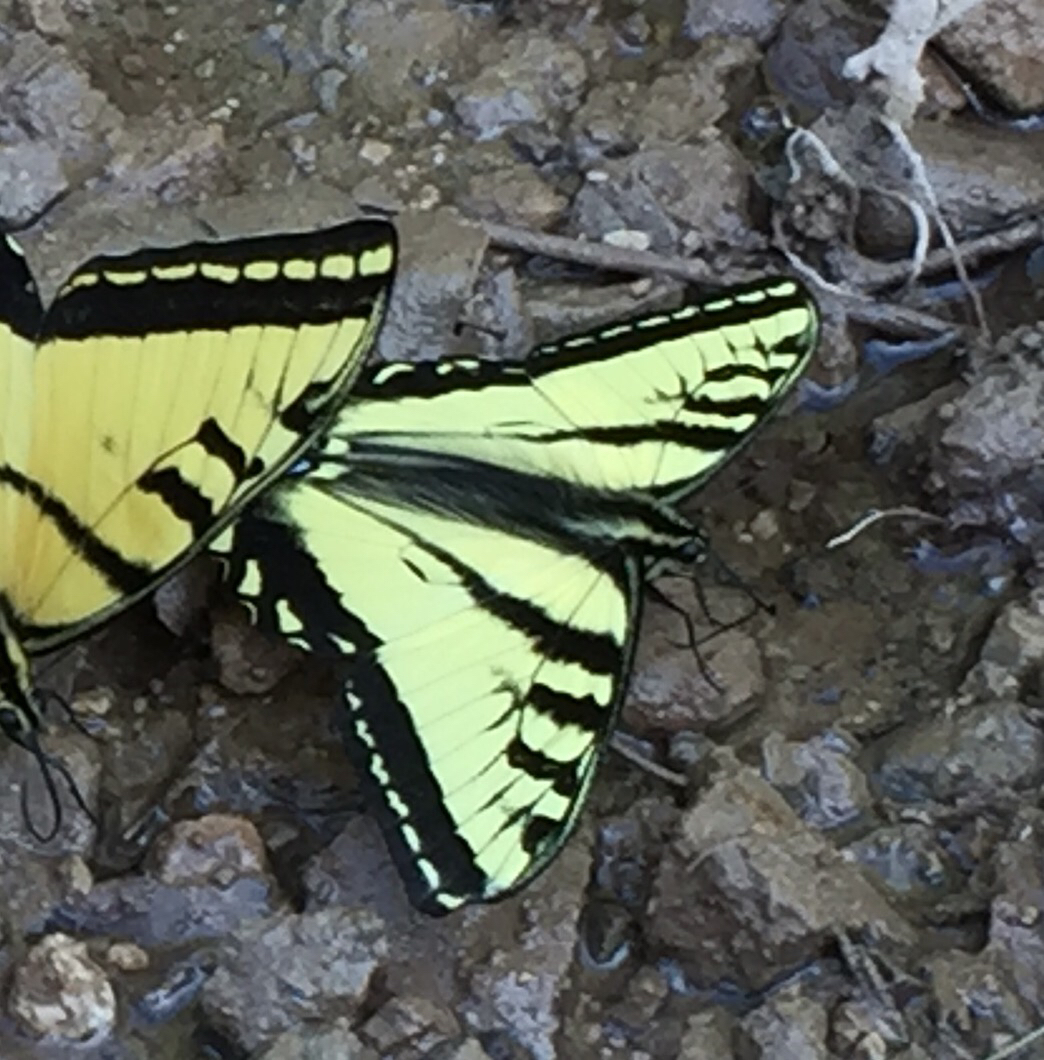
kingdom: Animalia
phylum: Arthropoda
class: Insecta
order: Lepidoptera
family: Papilionidae
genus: Papilio
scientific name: Papilio rutulus
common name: Western tiger swallowtail
